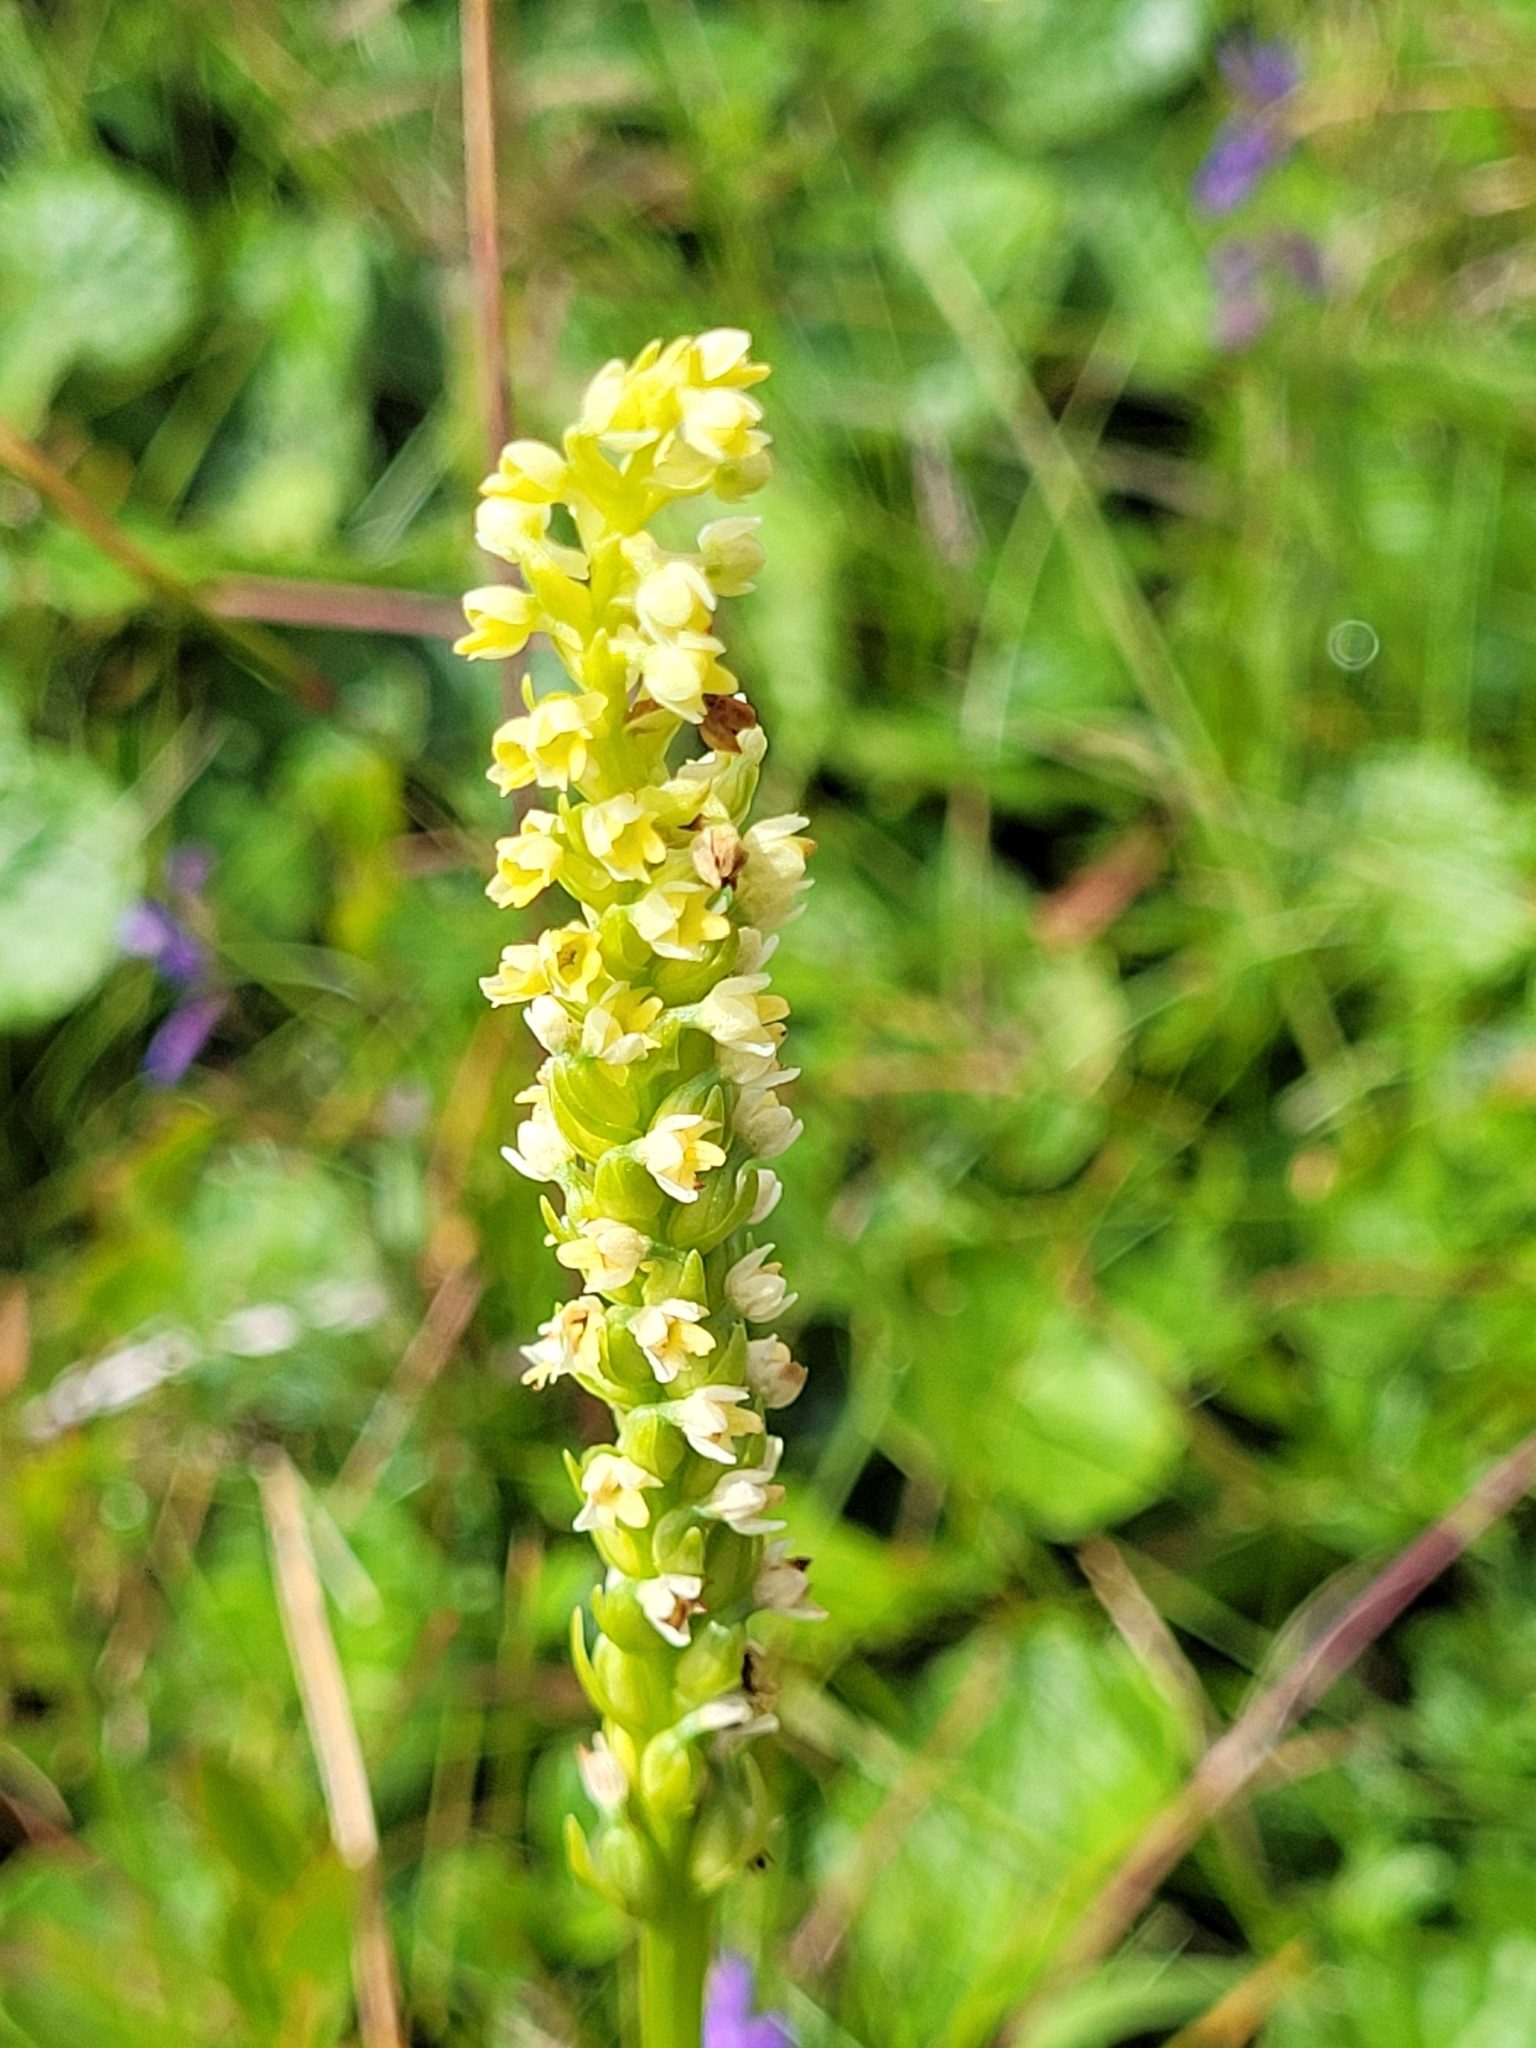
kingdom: Plantae
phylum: Tracheophyta
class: Liliopsida
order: Asparagales
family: Orchidaceae
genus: Pseudorchis
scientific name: Pseudorchis albida
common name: Small-white orchid
